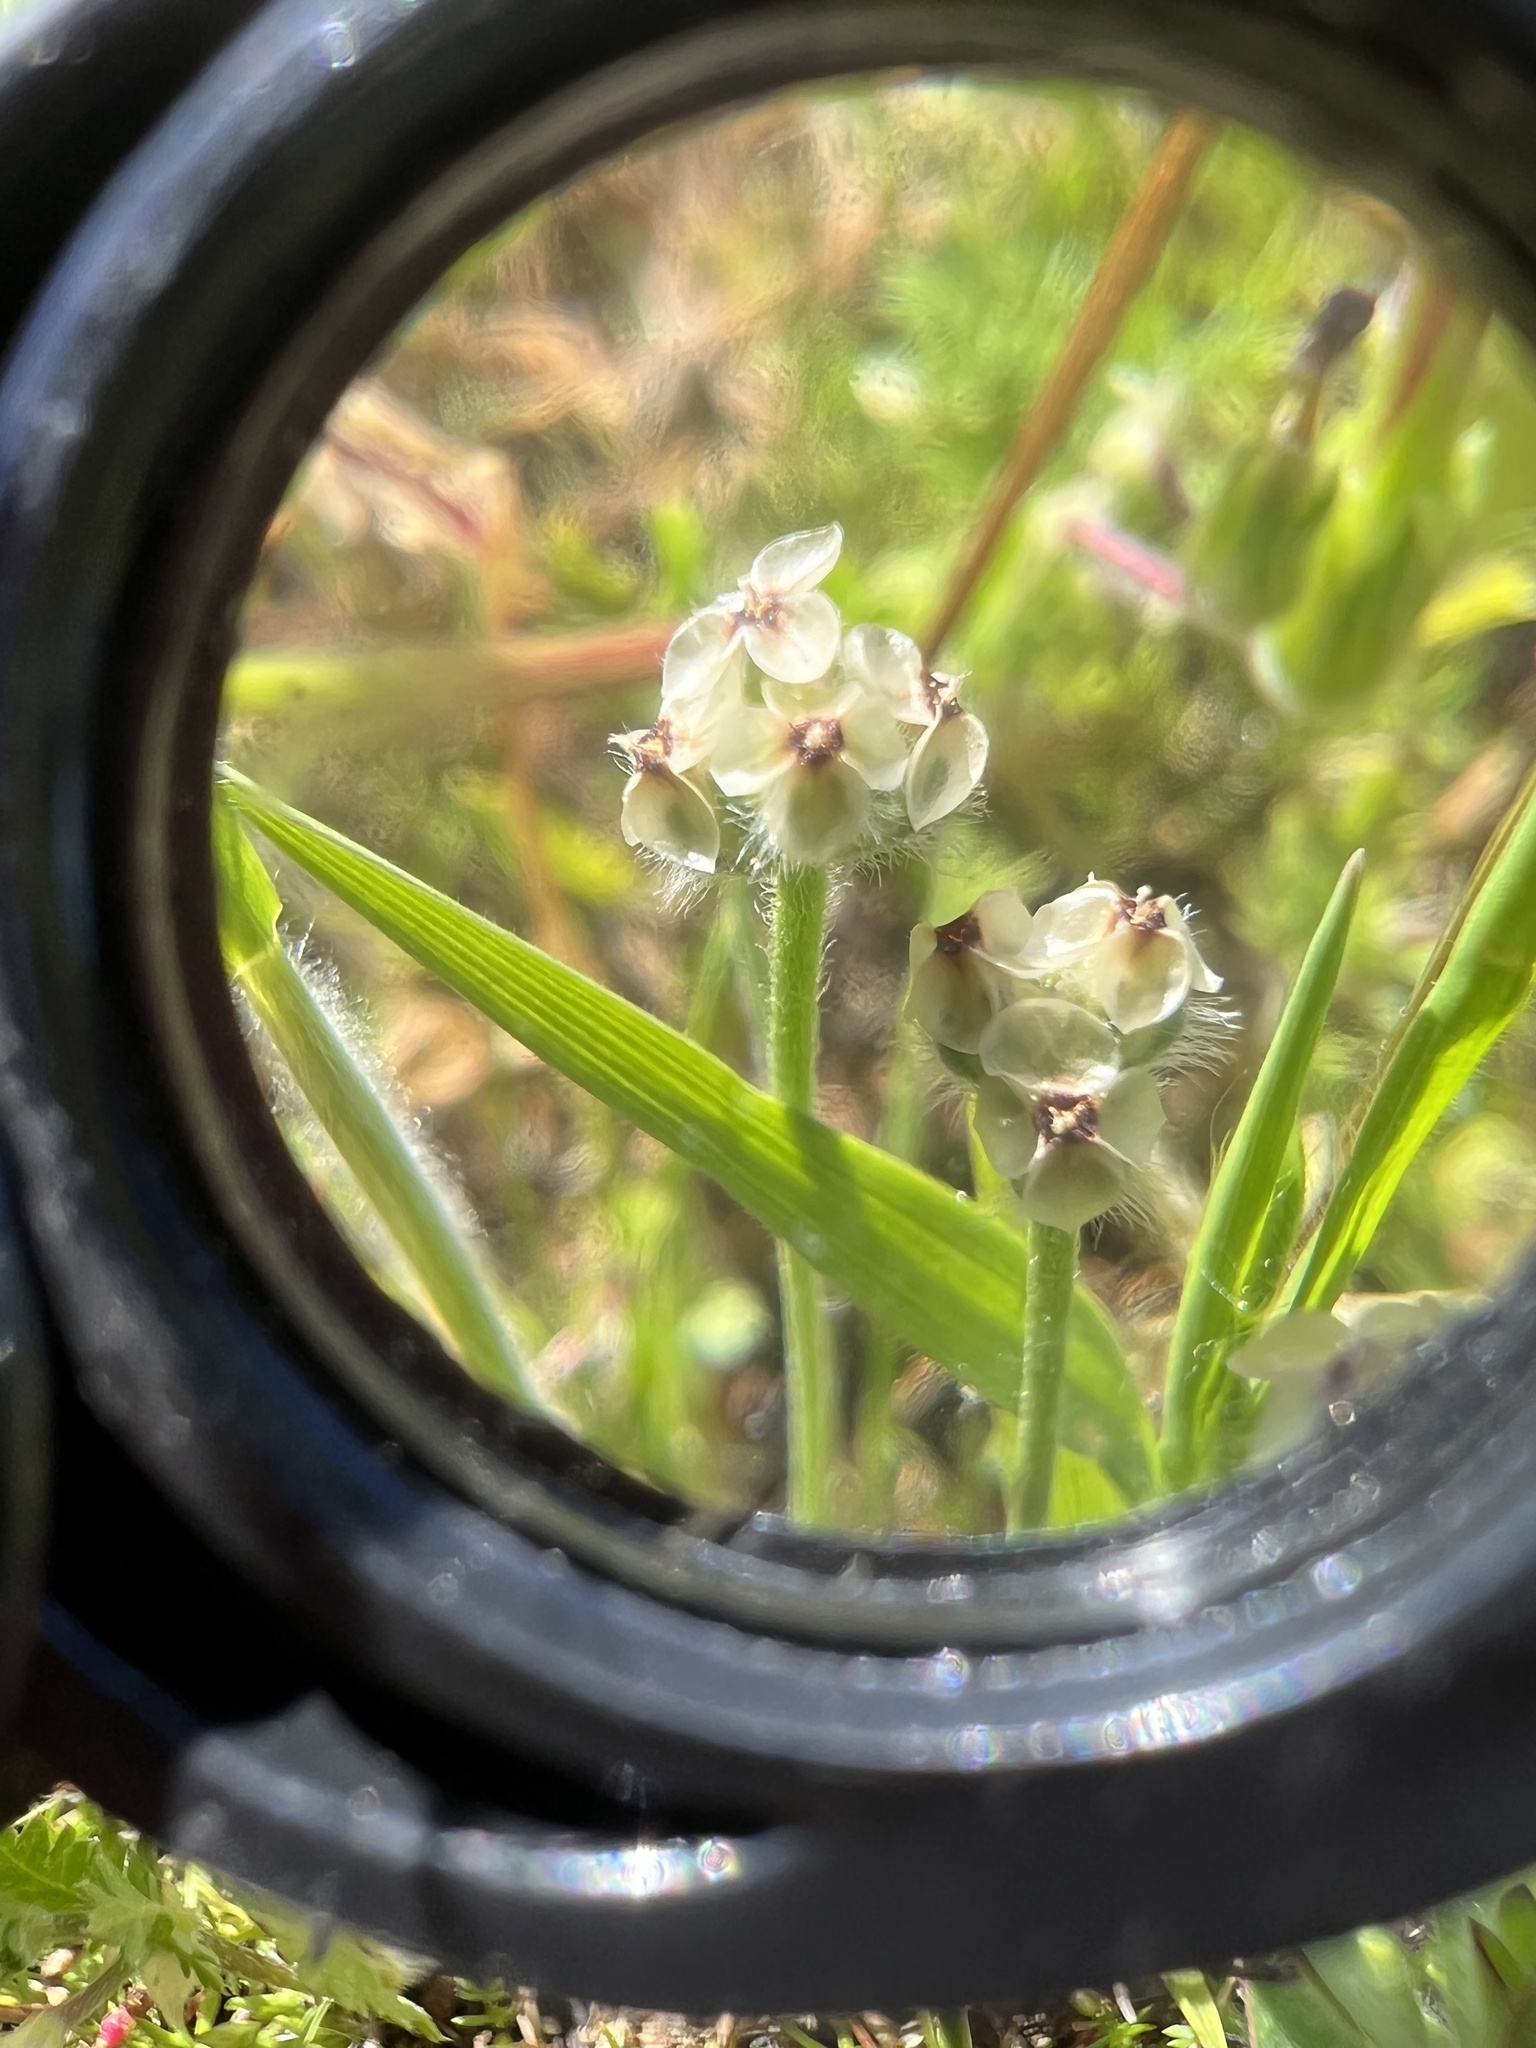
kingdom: Plantae
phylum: Tracheophyta
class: Magnoliopsida
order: Lamiales
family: Plantaginaceae
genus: Plantago
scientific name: Plantago erecta
